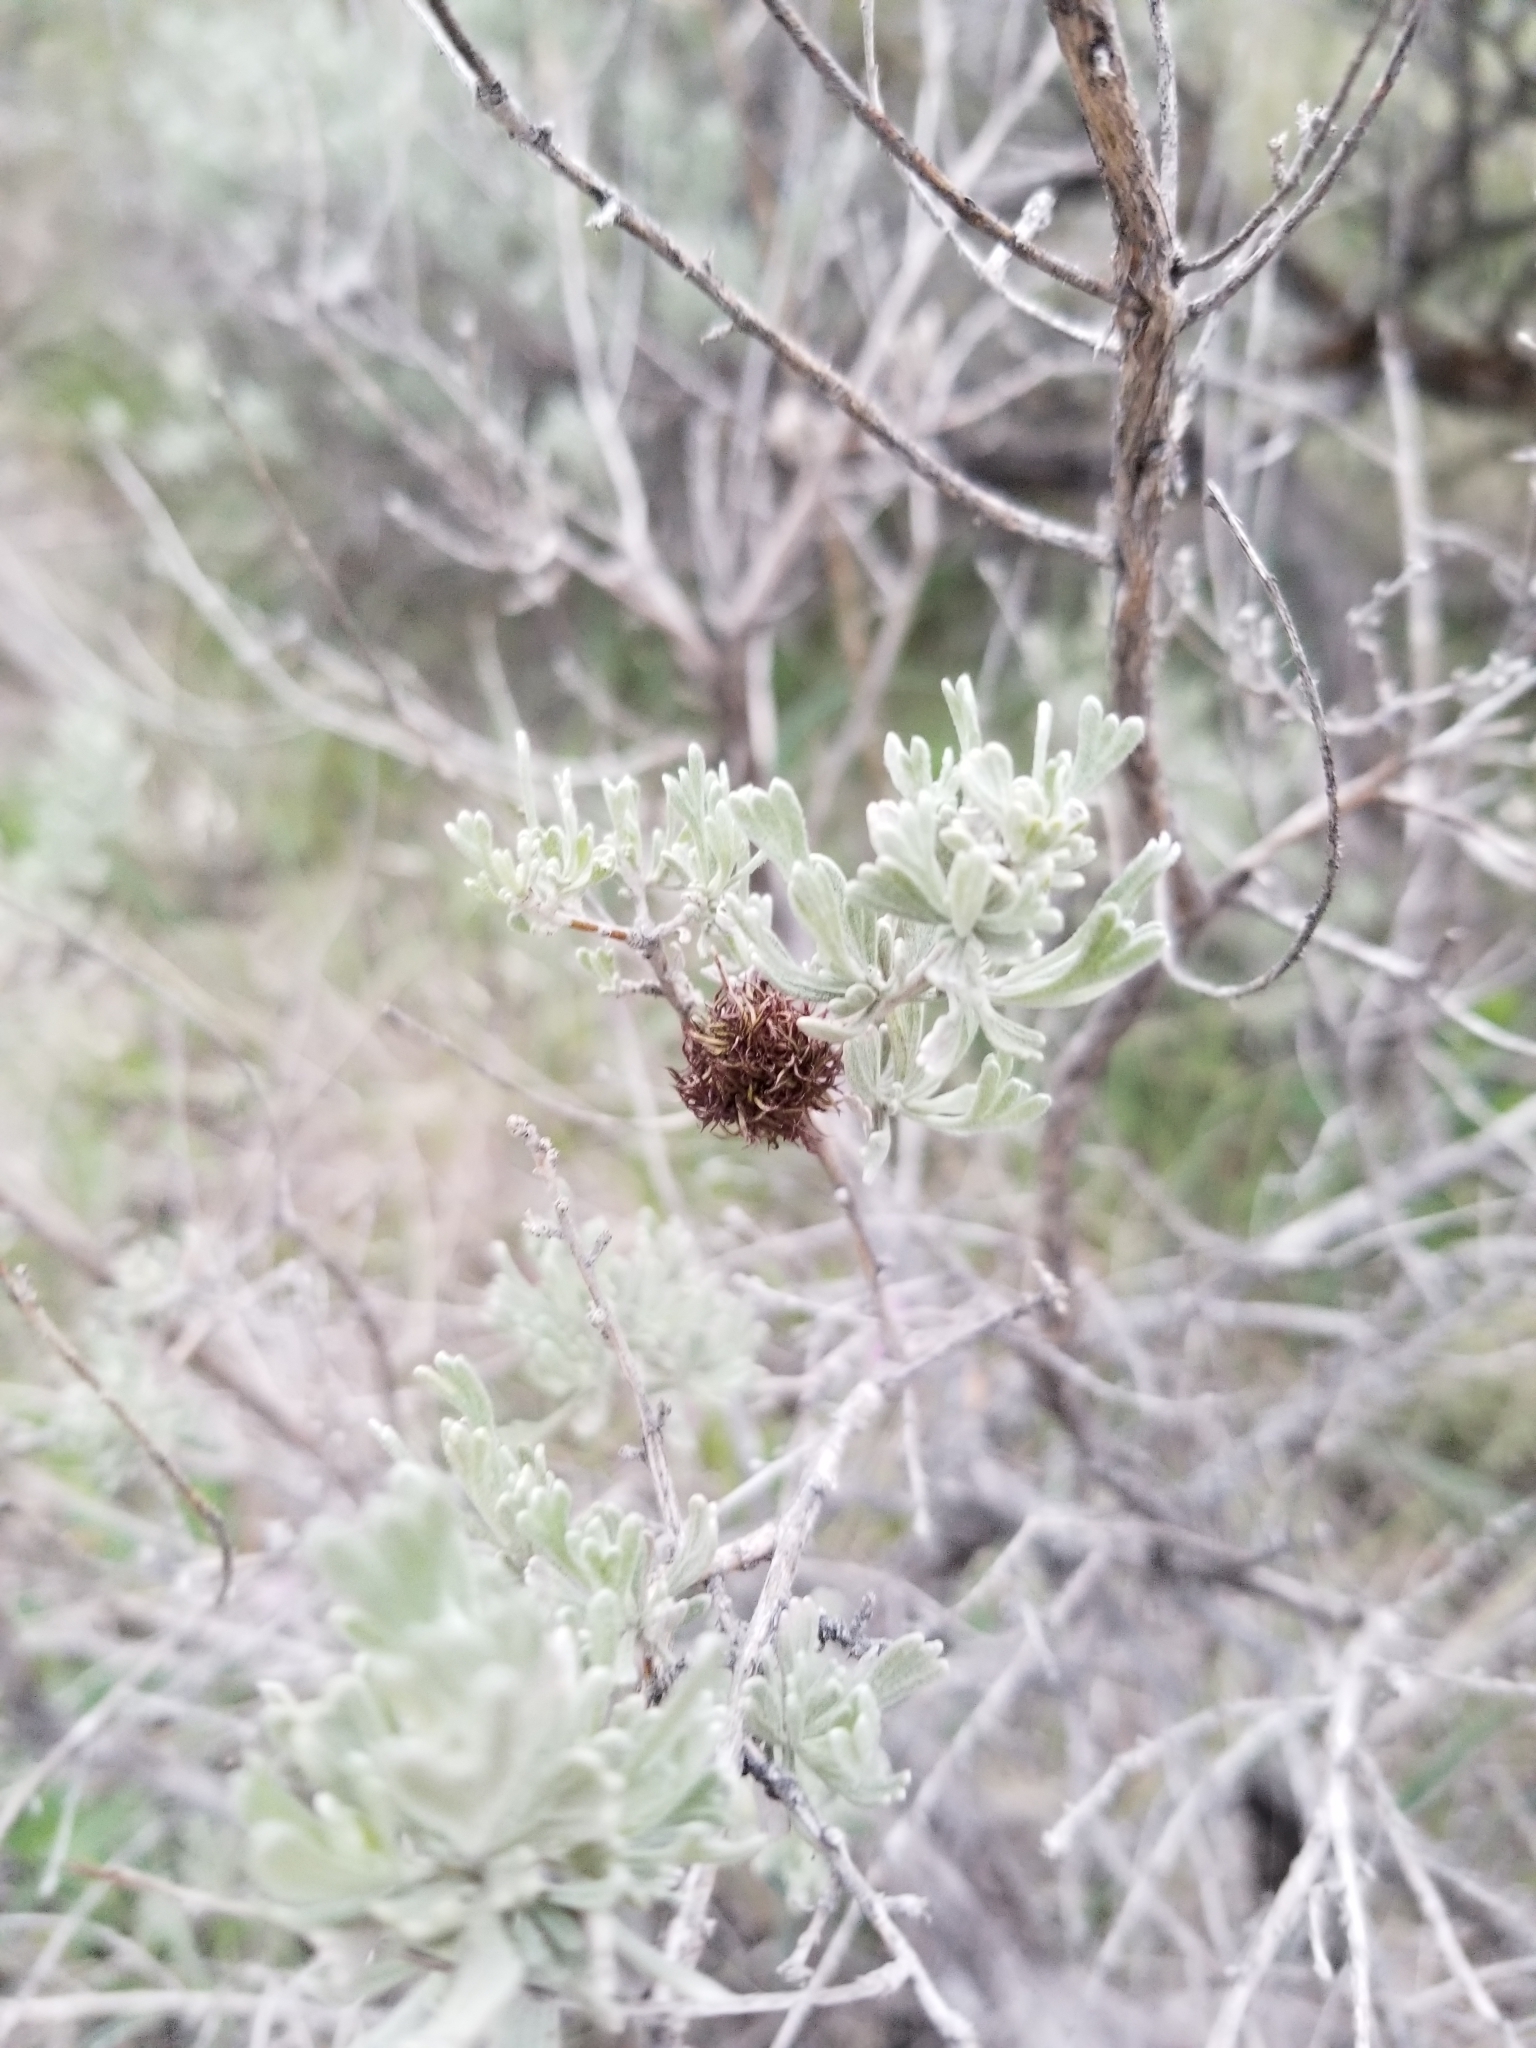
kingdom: Animalia
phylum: Arthropoda
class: Insecta
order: Diptera
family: Cecidomyiidae
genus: Rhopalomyia
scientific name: Rhopalomyia medusa
